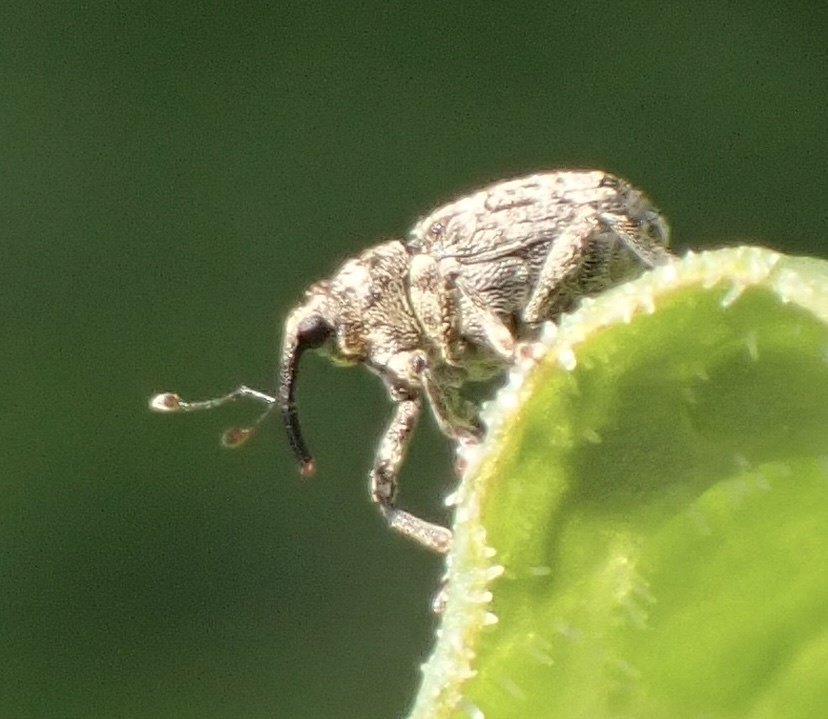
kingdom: Animalia
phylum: Arthropoda
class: Insecta
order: Coleoptera
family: Curculionidae
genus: Ceutorhynchus
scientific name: Ceutorhynchus pallidactylus
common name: Cabbage stem weavil
